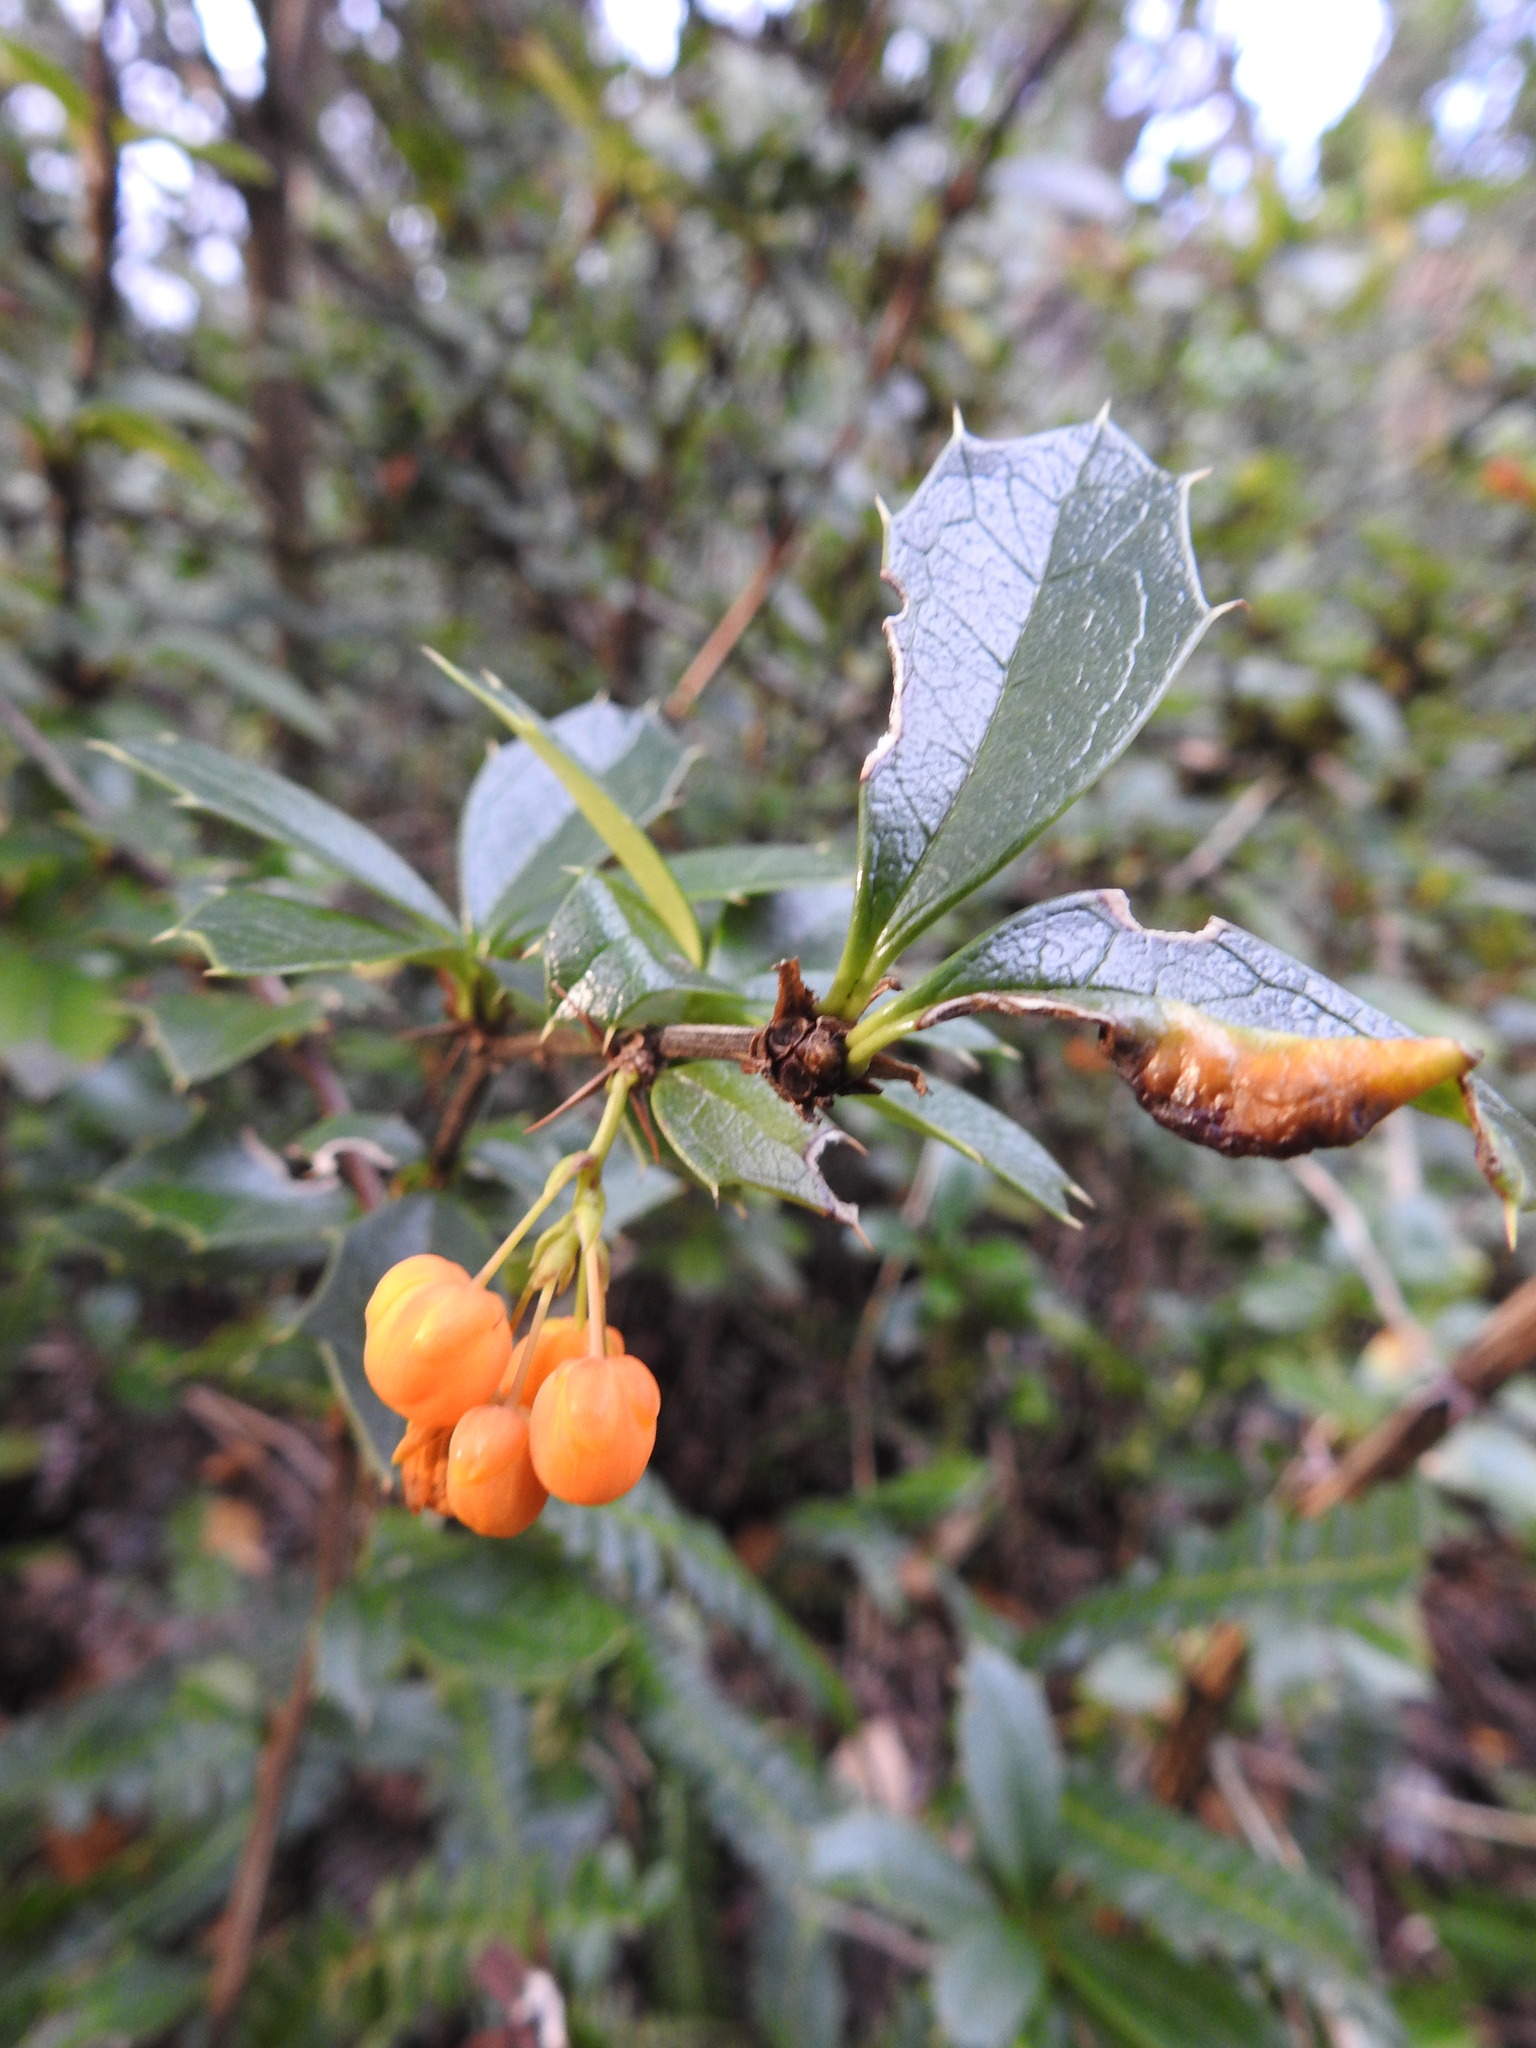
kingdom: Plantae
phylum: Tracheophyta
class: Magnoliopsida
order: Ranunculales
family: Berberidaceae
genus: Berberis
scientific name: Berberis ilicifolia
